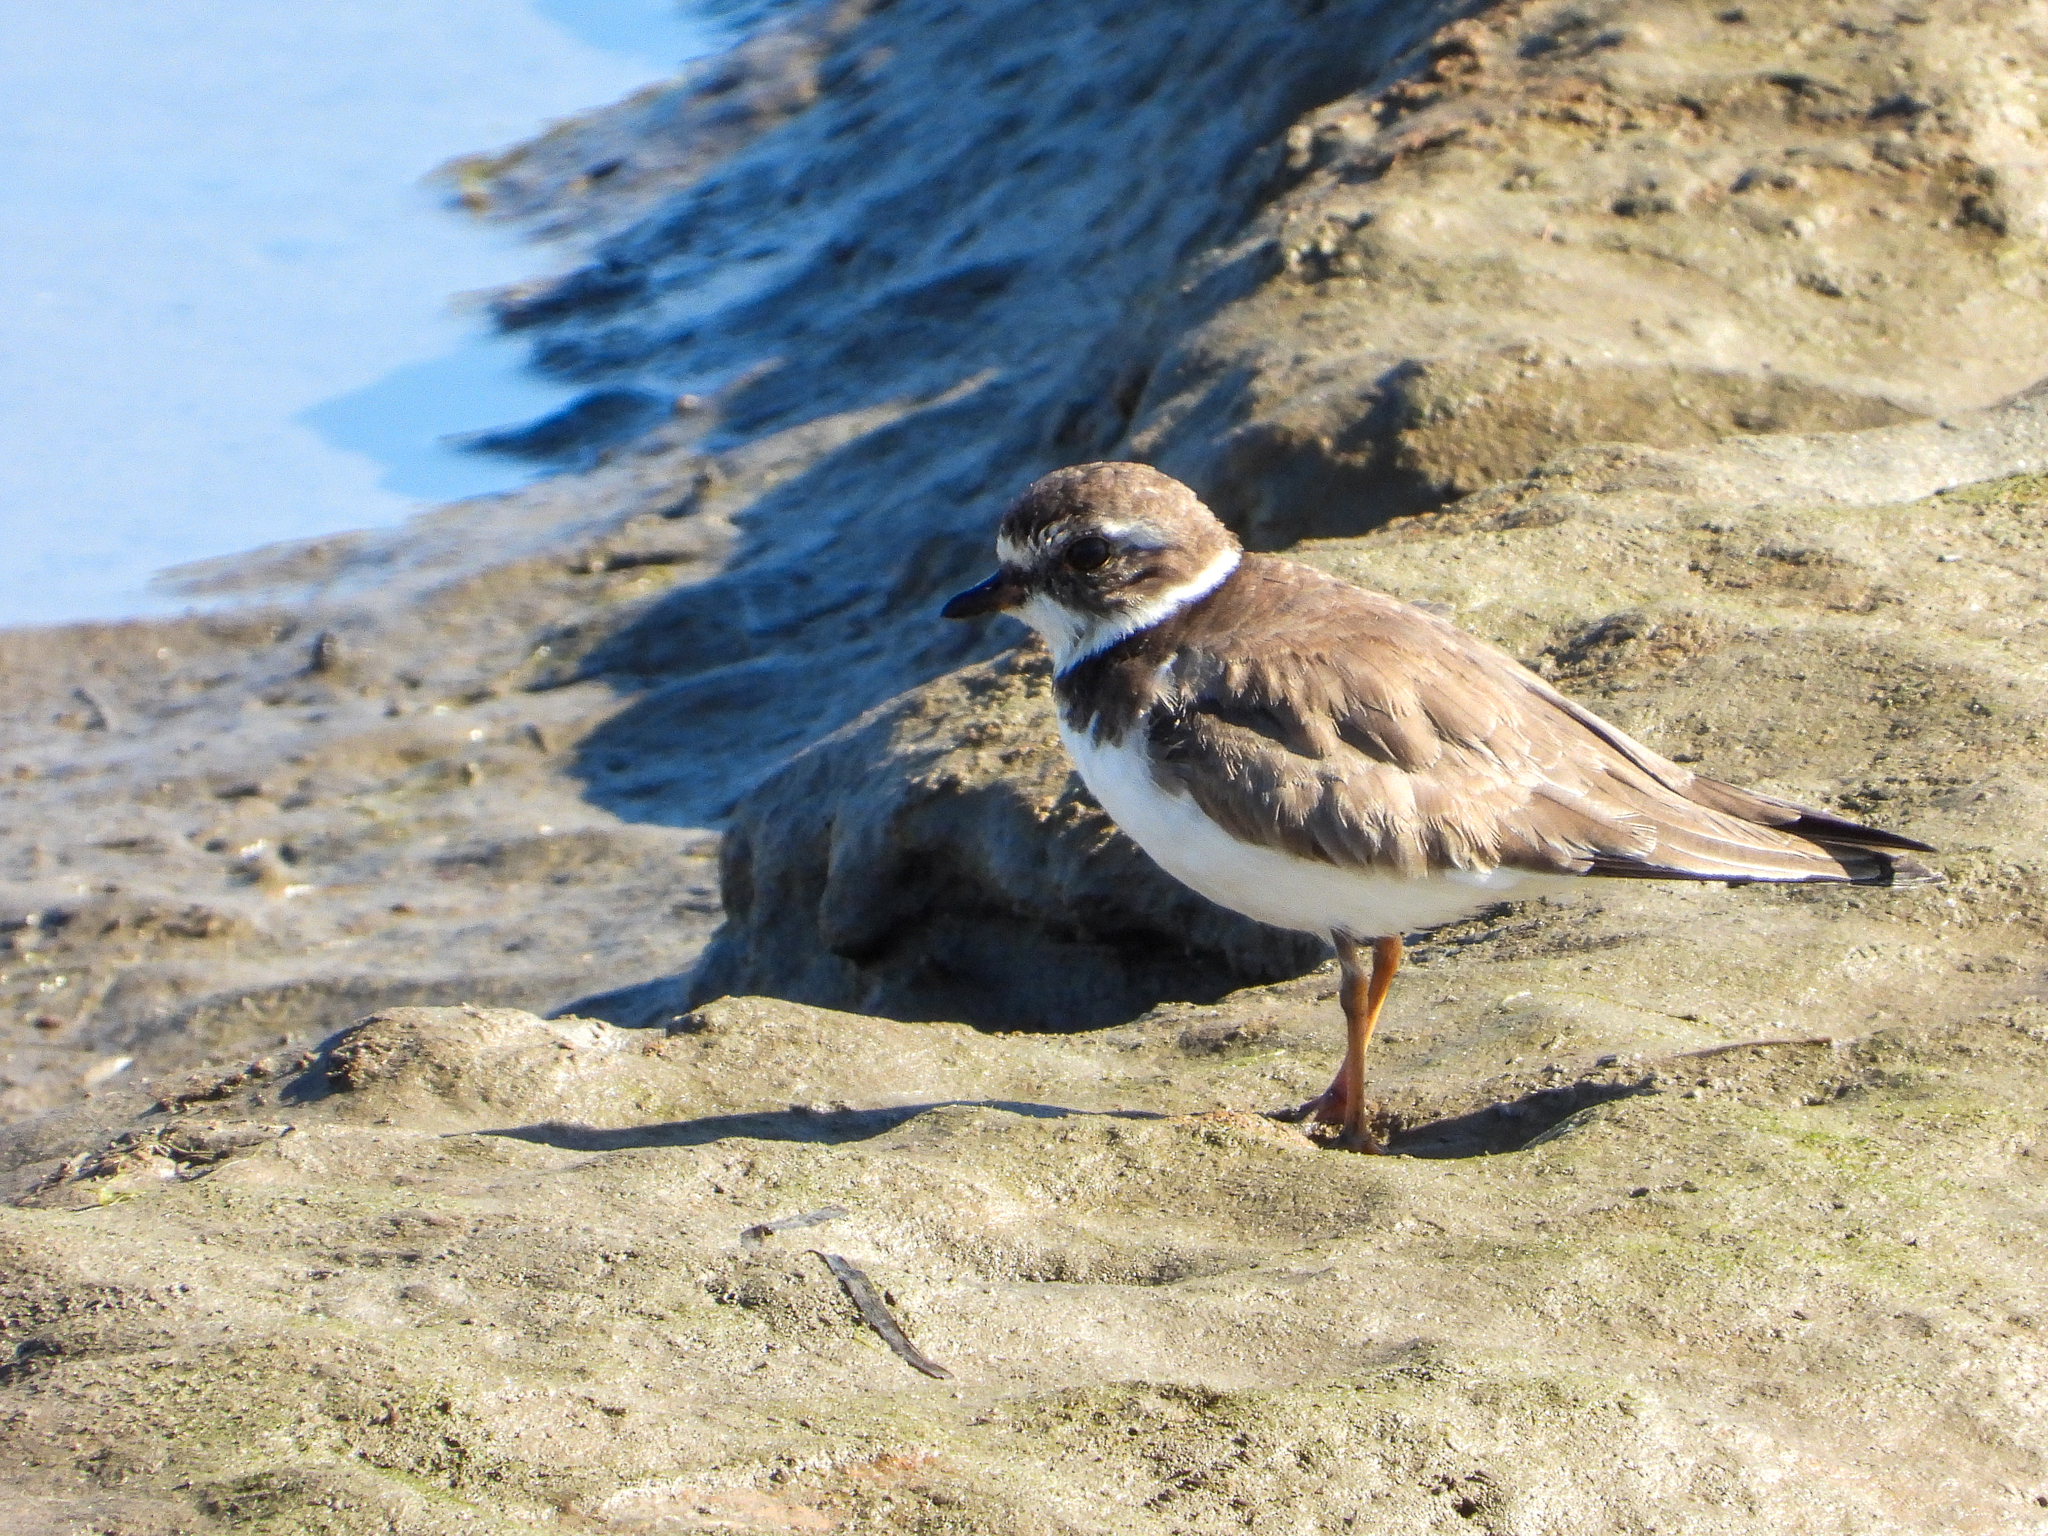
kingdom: Animalia
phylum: Chordata
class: Aves
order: Charadriiformes
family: Charadriidae
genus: Charadrius
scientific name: Charadrius semipalmatus
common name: Semipalmated plover
